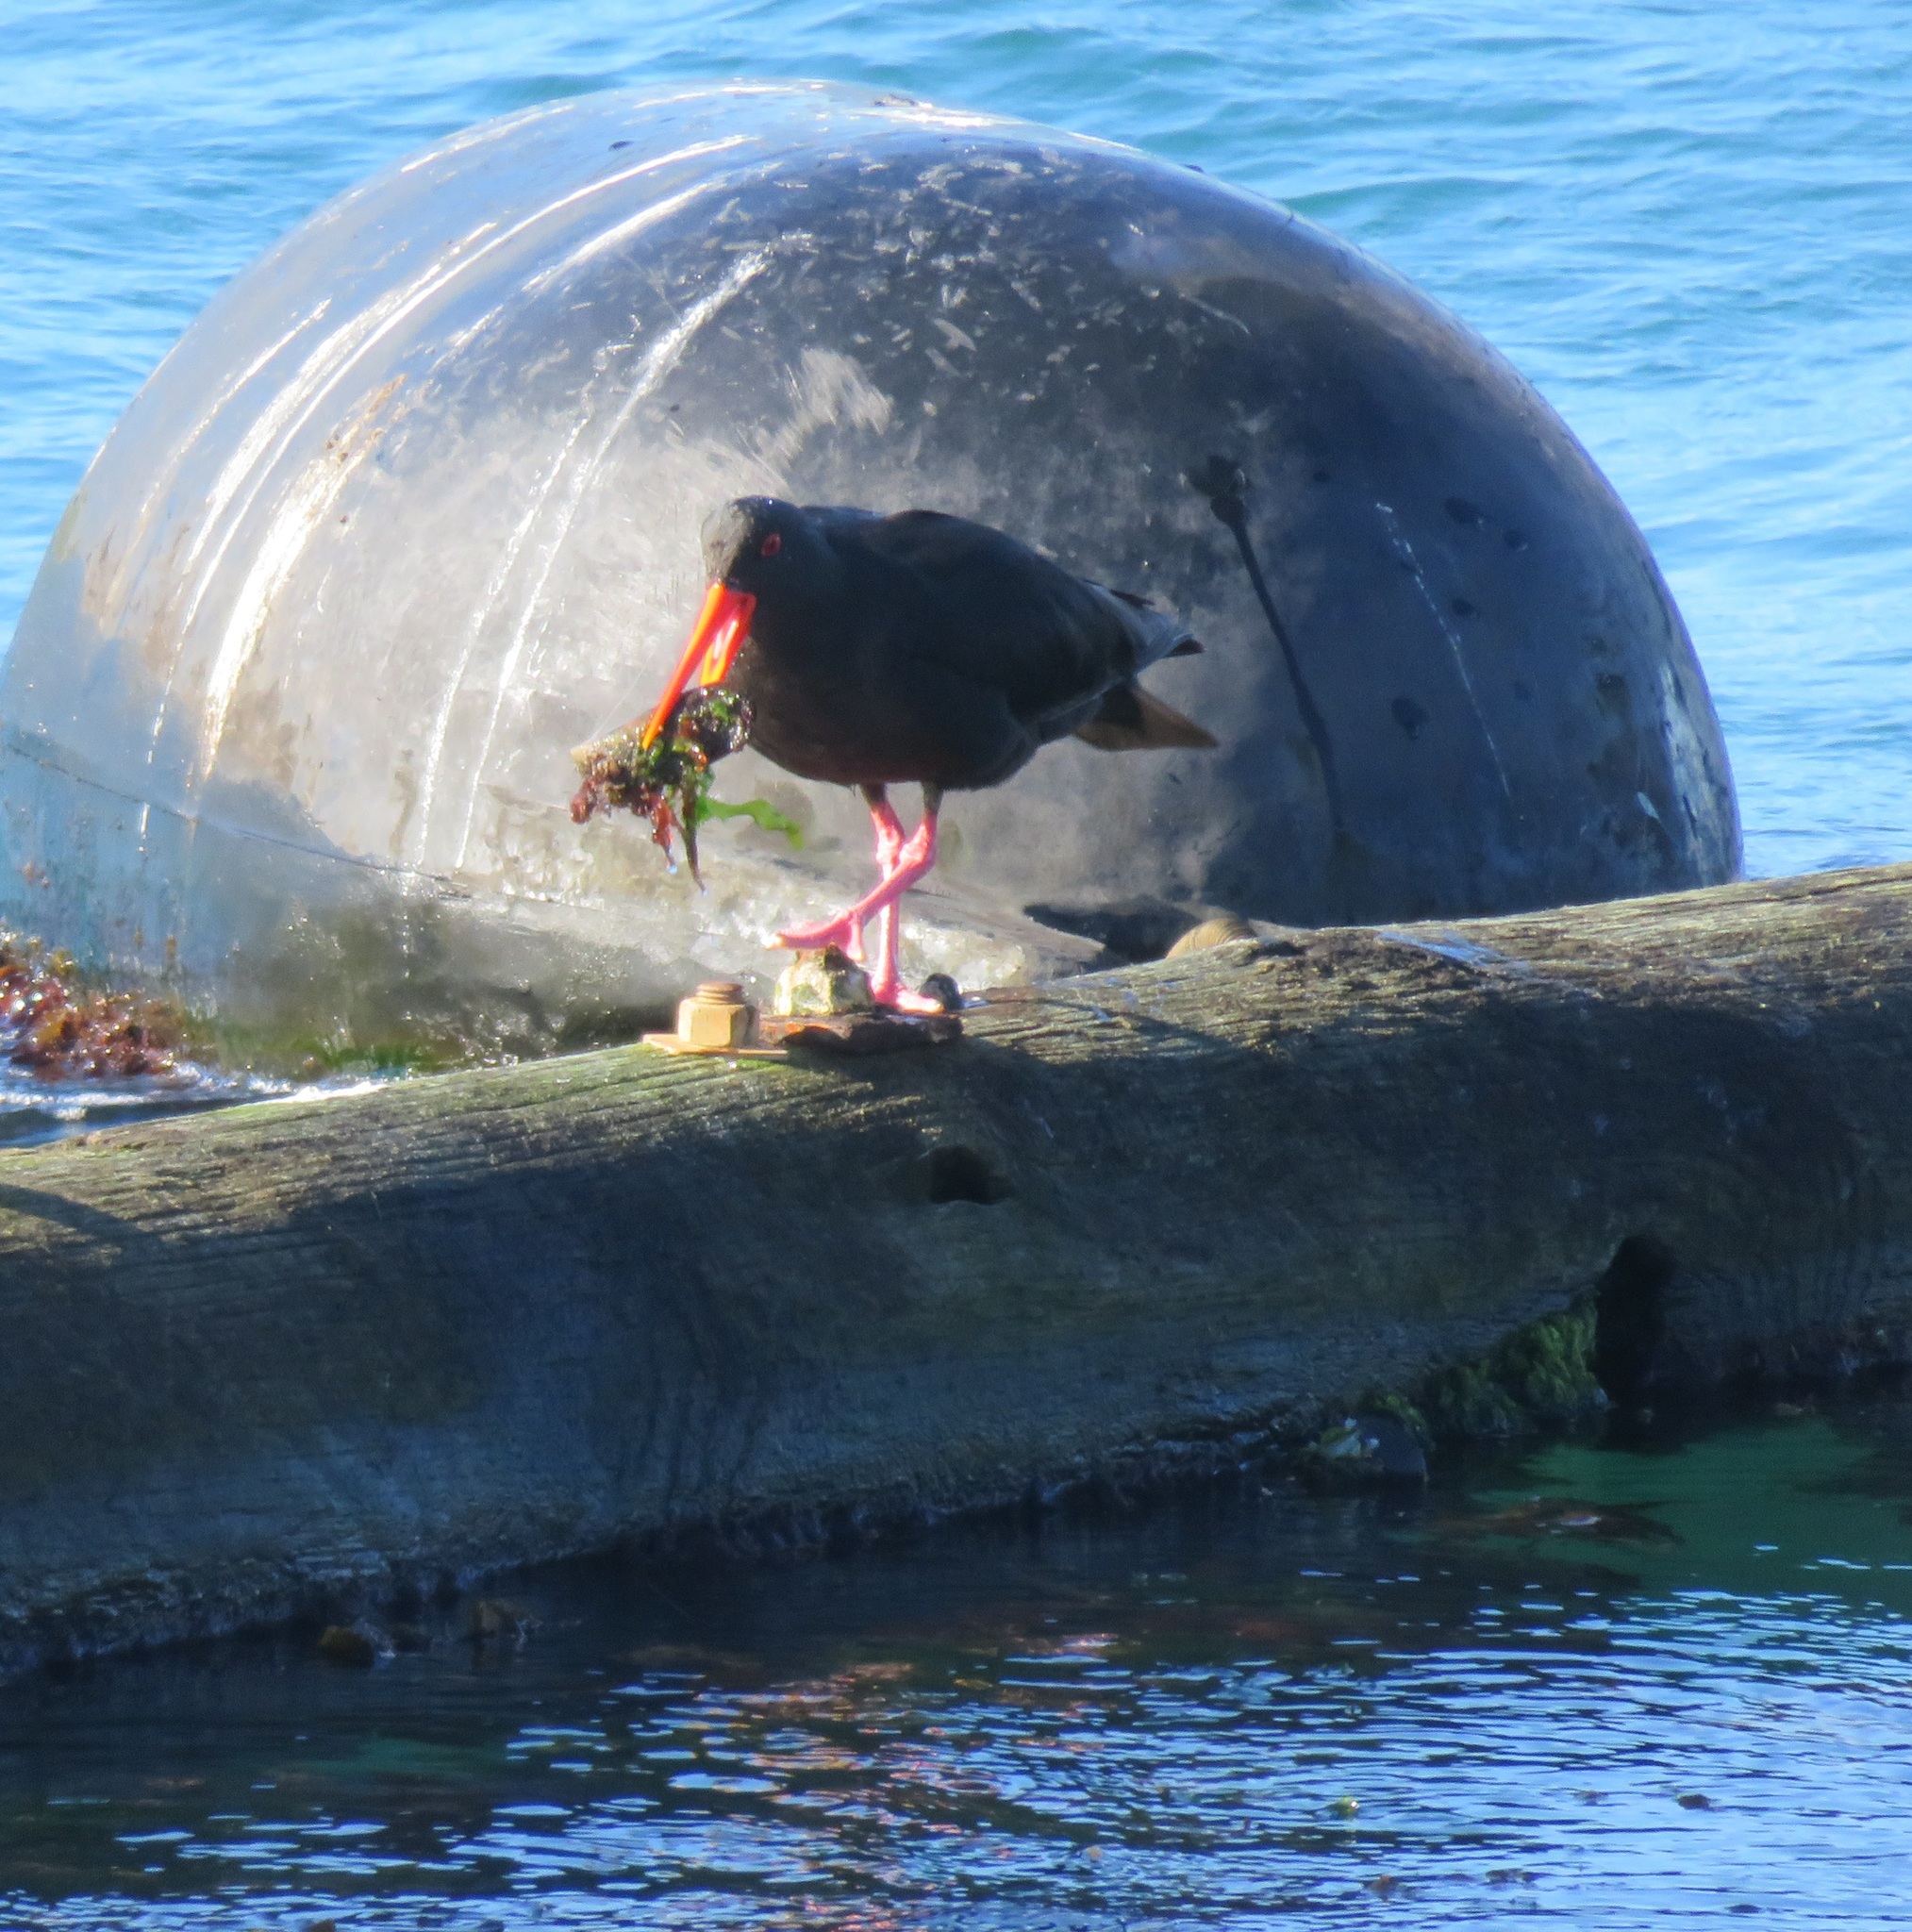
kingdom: Animalia
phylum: Chordata
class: Aves
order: Charadriiformes
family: Haematopodidae
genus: Haematopus
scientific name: Haematopus unicolor
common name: Variable oystercatcher
